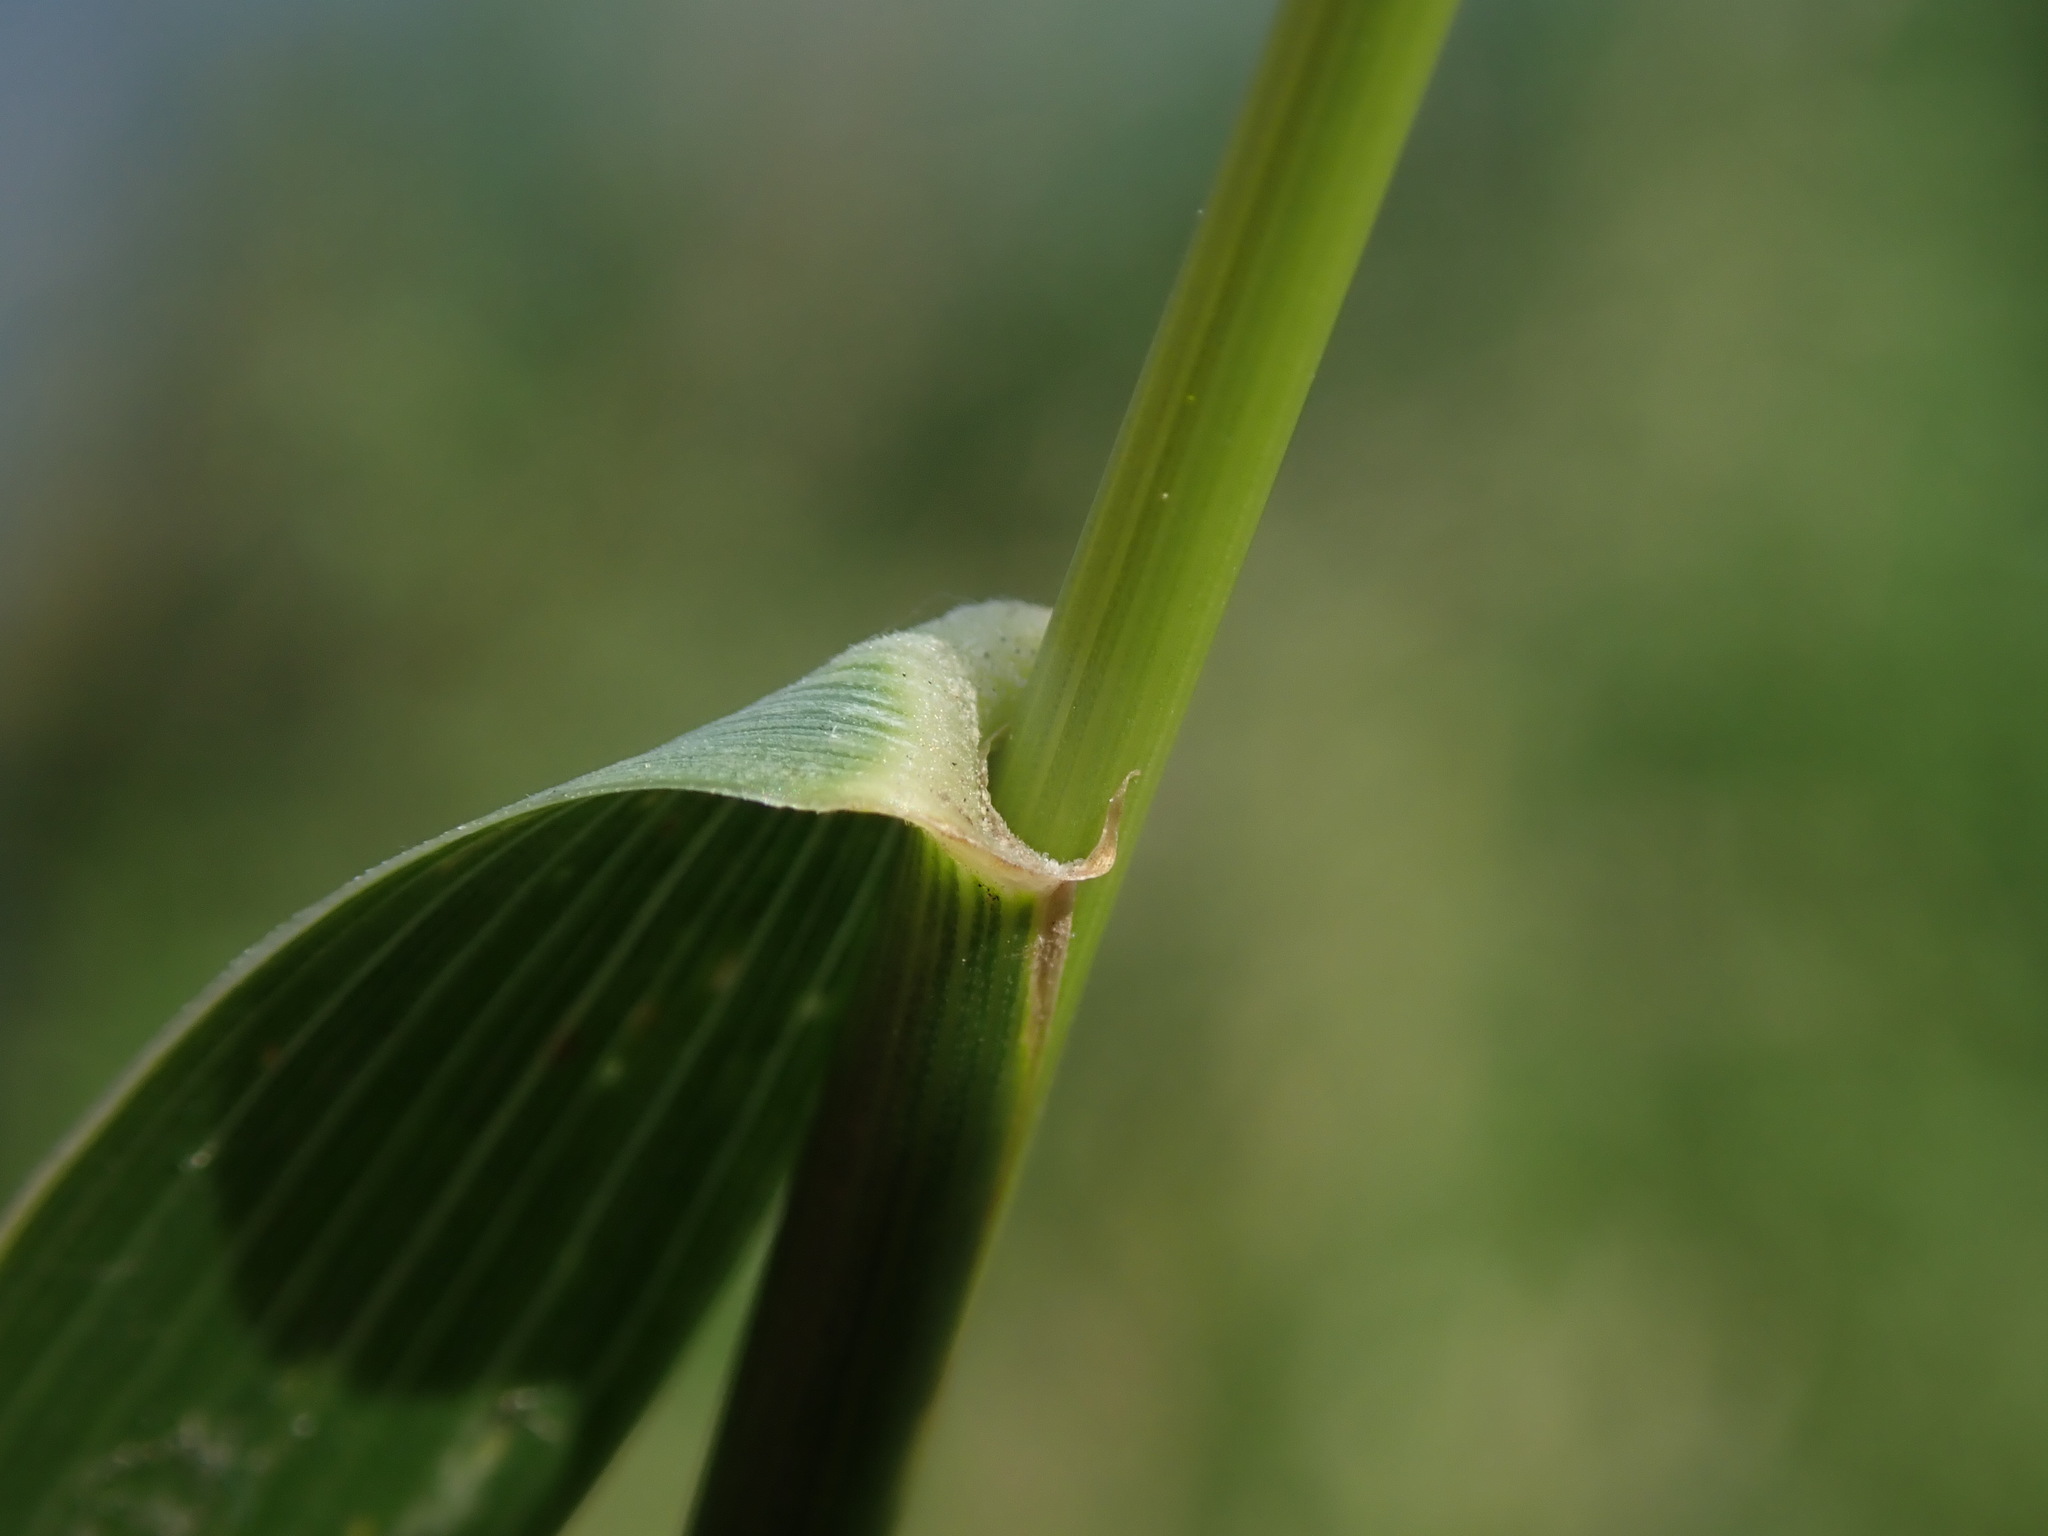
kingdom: Plantae
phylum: Tracheophyta
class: Liliopsida
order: Poales
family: Poaceae
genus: Elymus
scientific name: Elymus athericus
